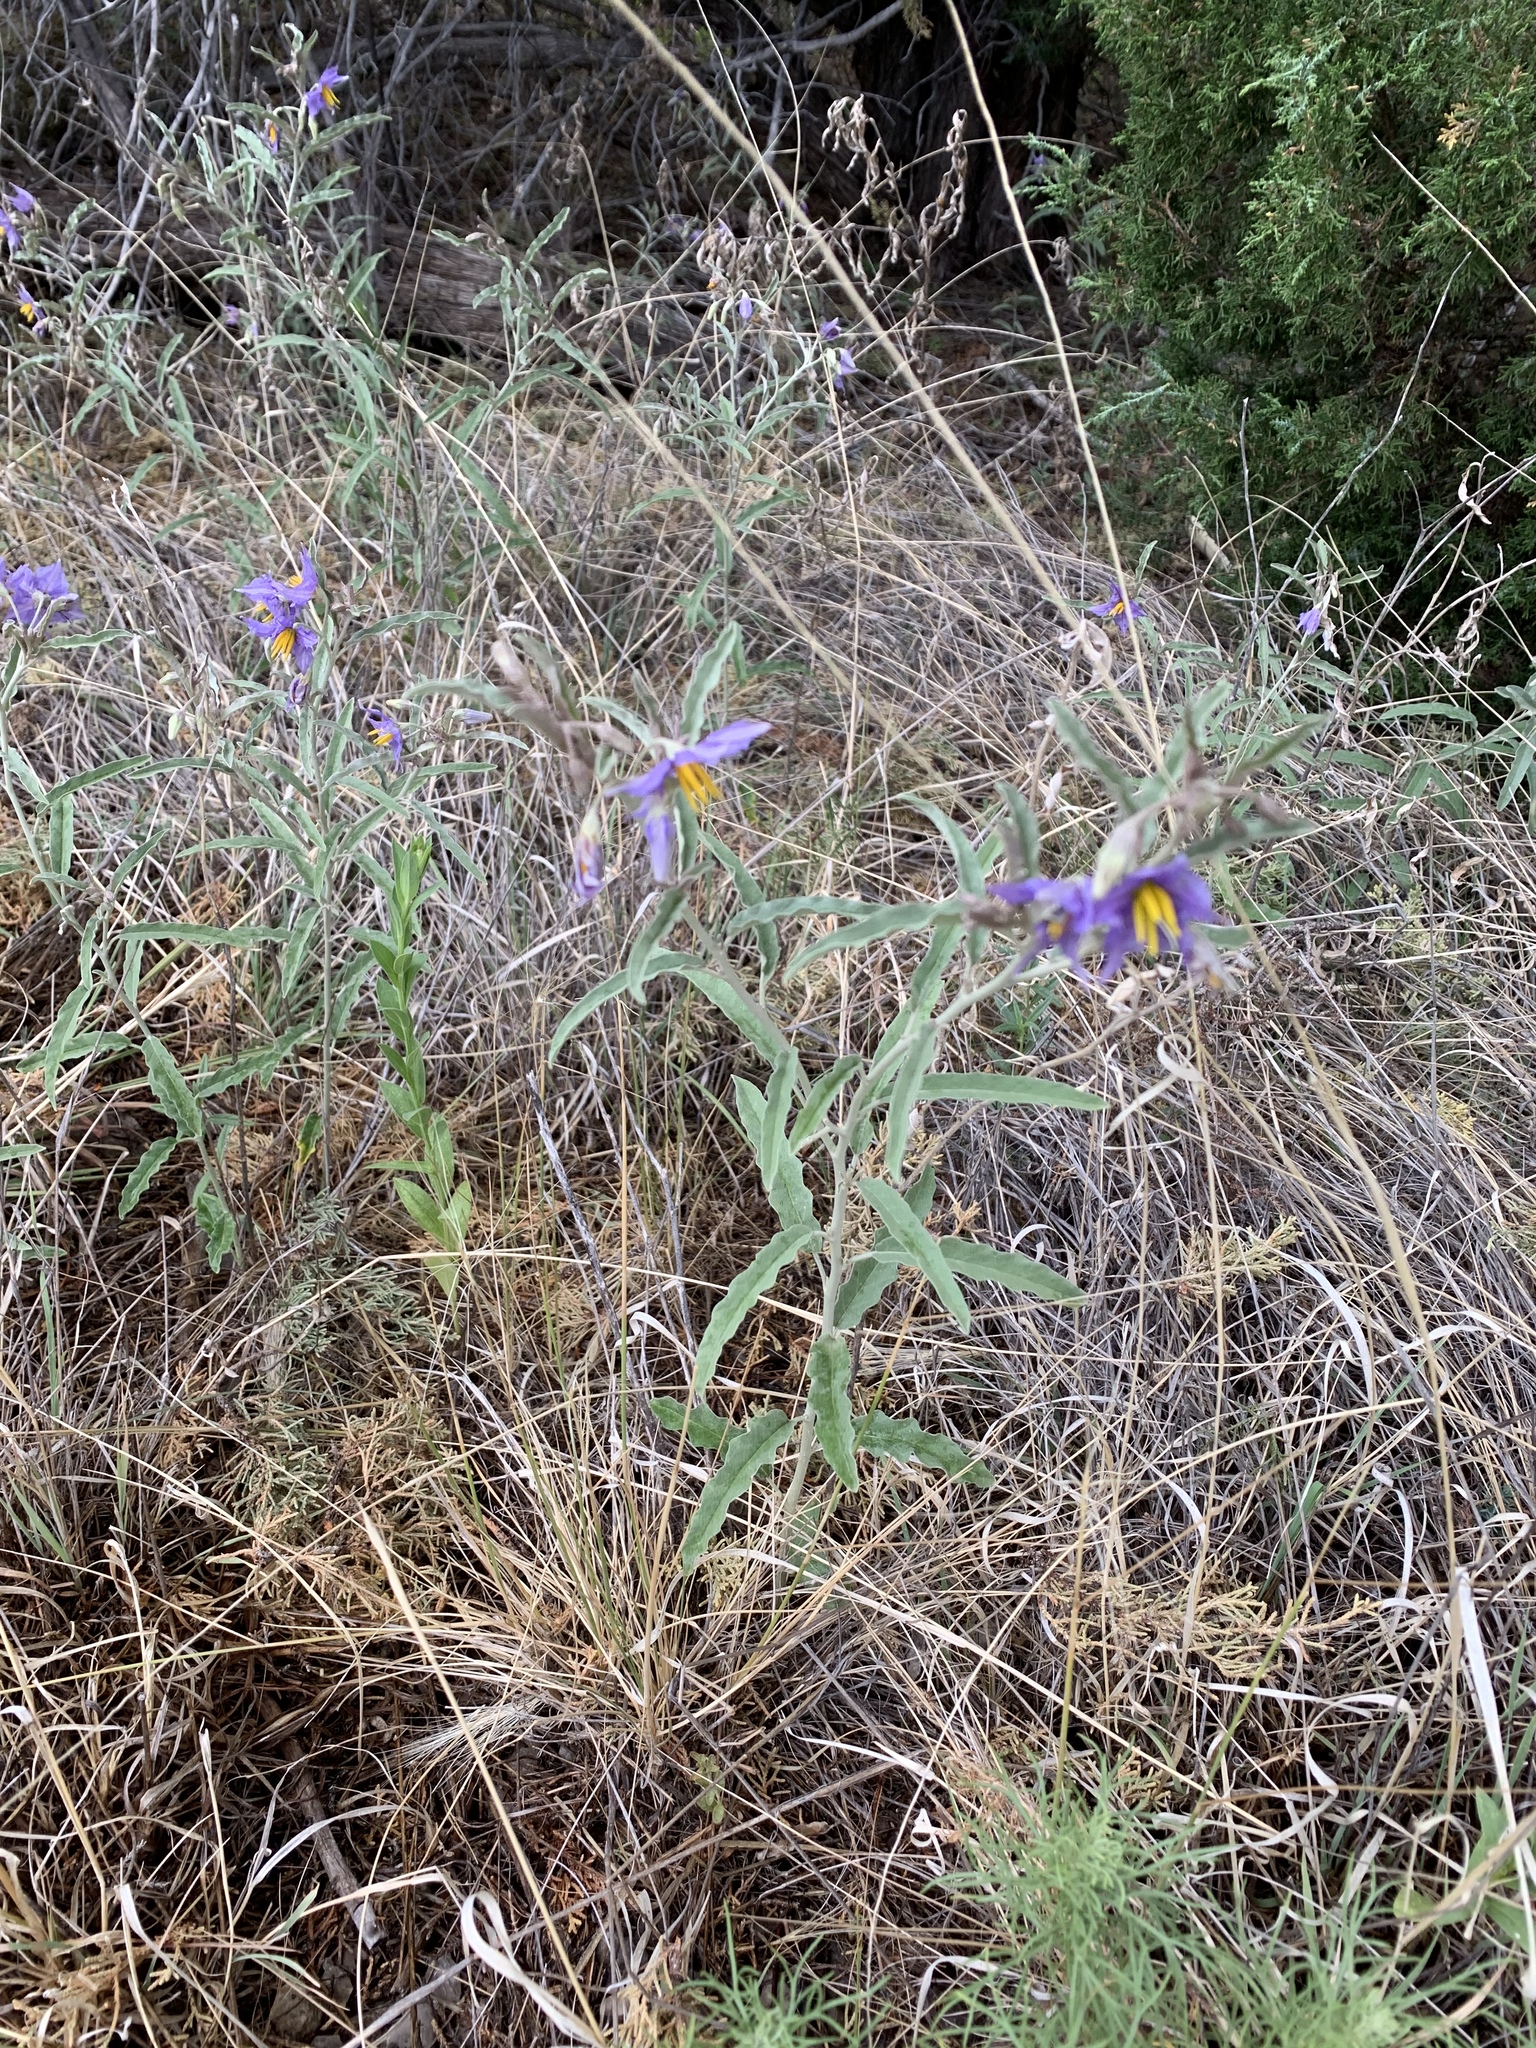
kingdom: Plantae
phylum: Tracheophyta
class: Magnoliopsida
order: Solanales
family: Solanaceae
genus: Solanum
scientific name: Solanum elaeagnifolium
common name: Silverleaf nightshade
